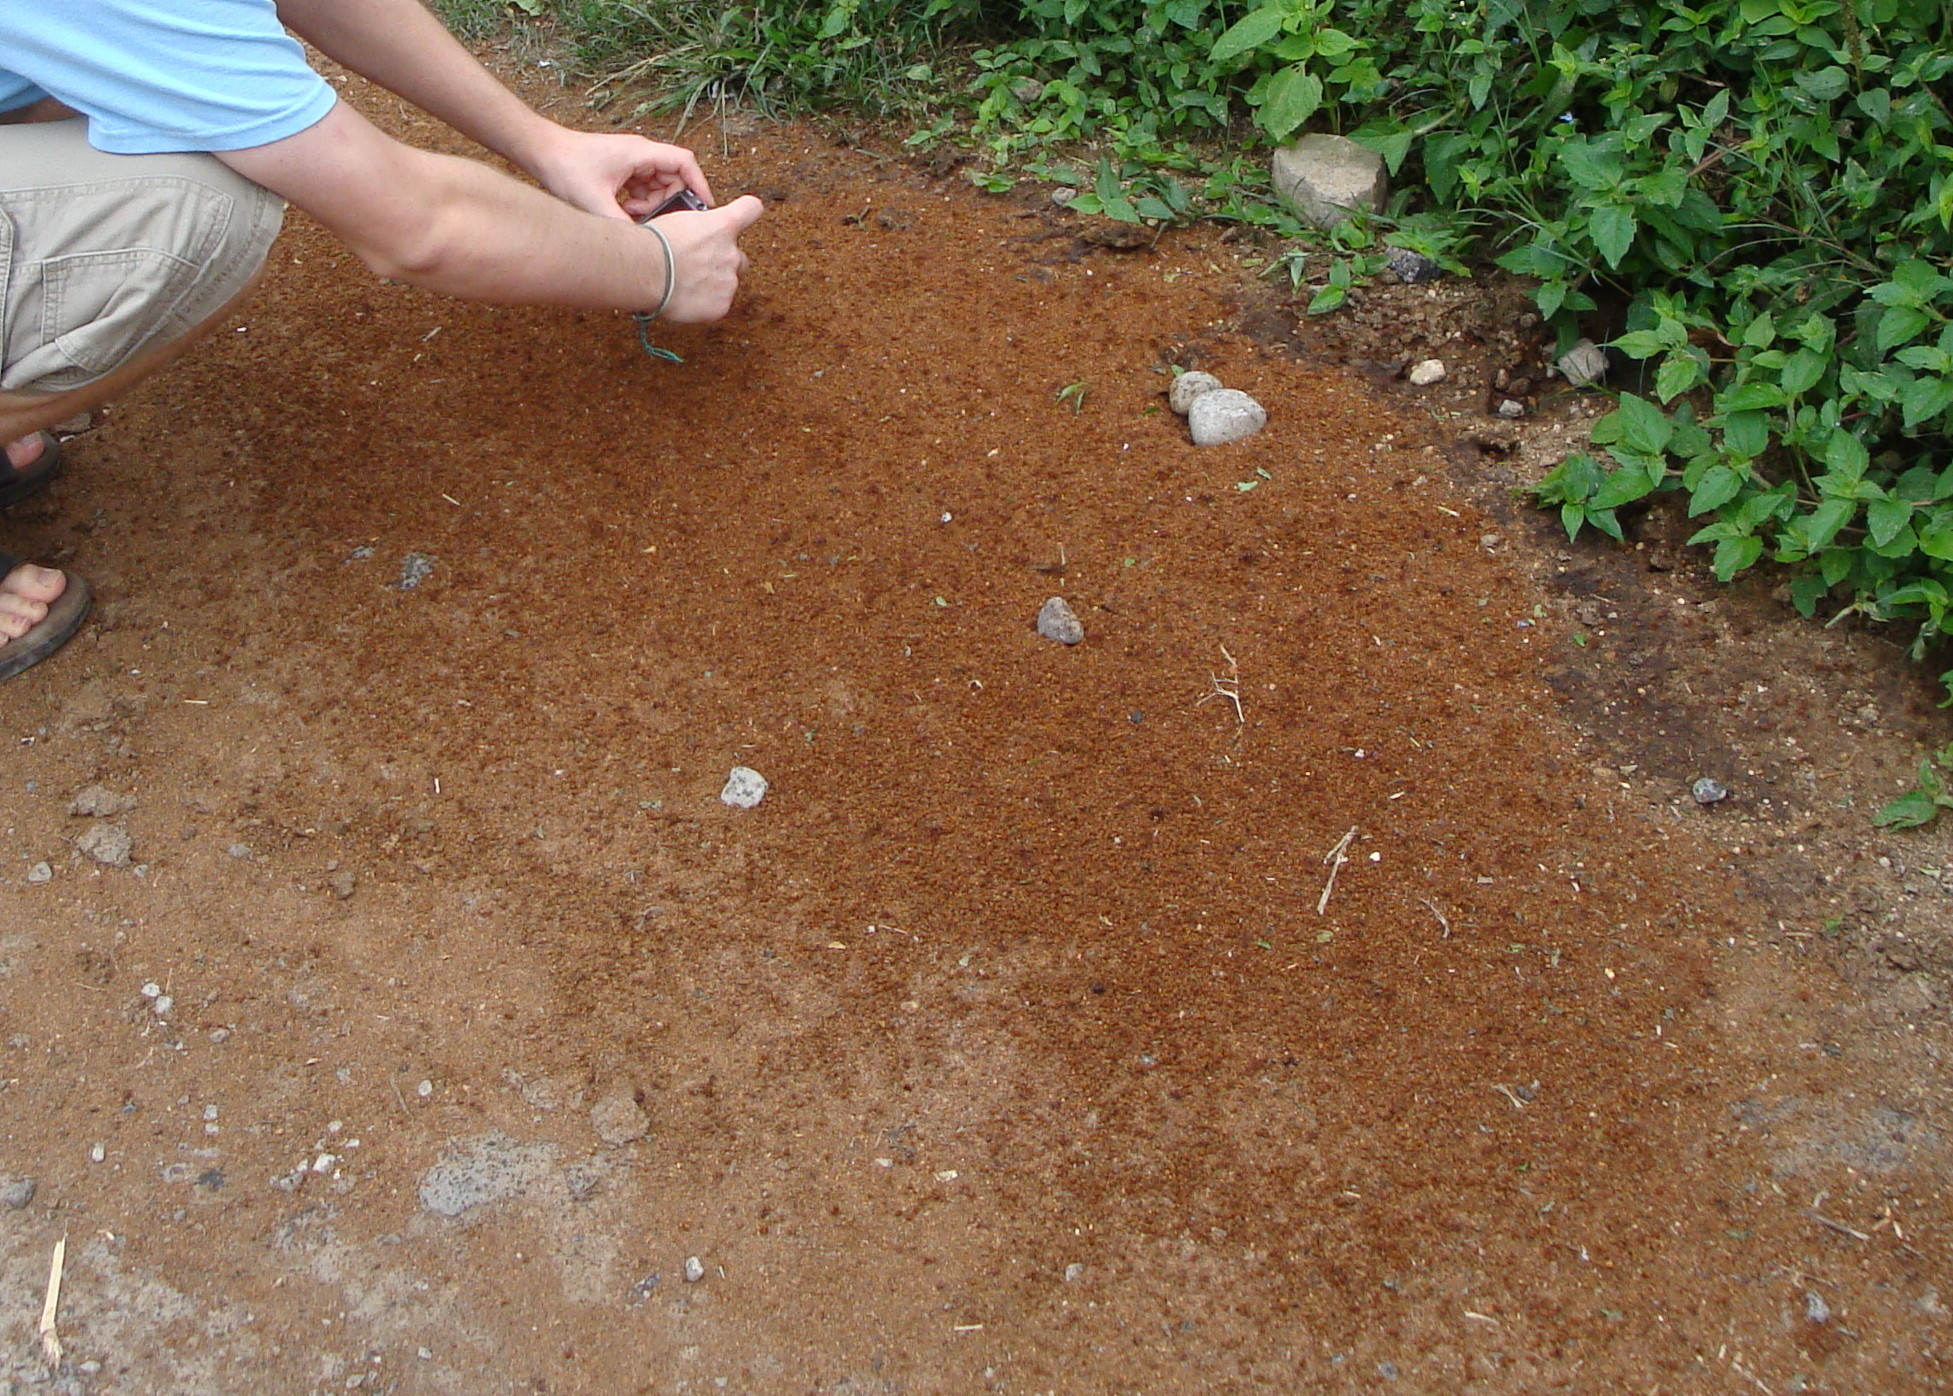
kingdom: Animalia
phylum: Arthropoda
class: Insecta
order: Hymenoptera
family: Formicidae
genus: Atta
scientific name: Atta mexicana
